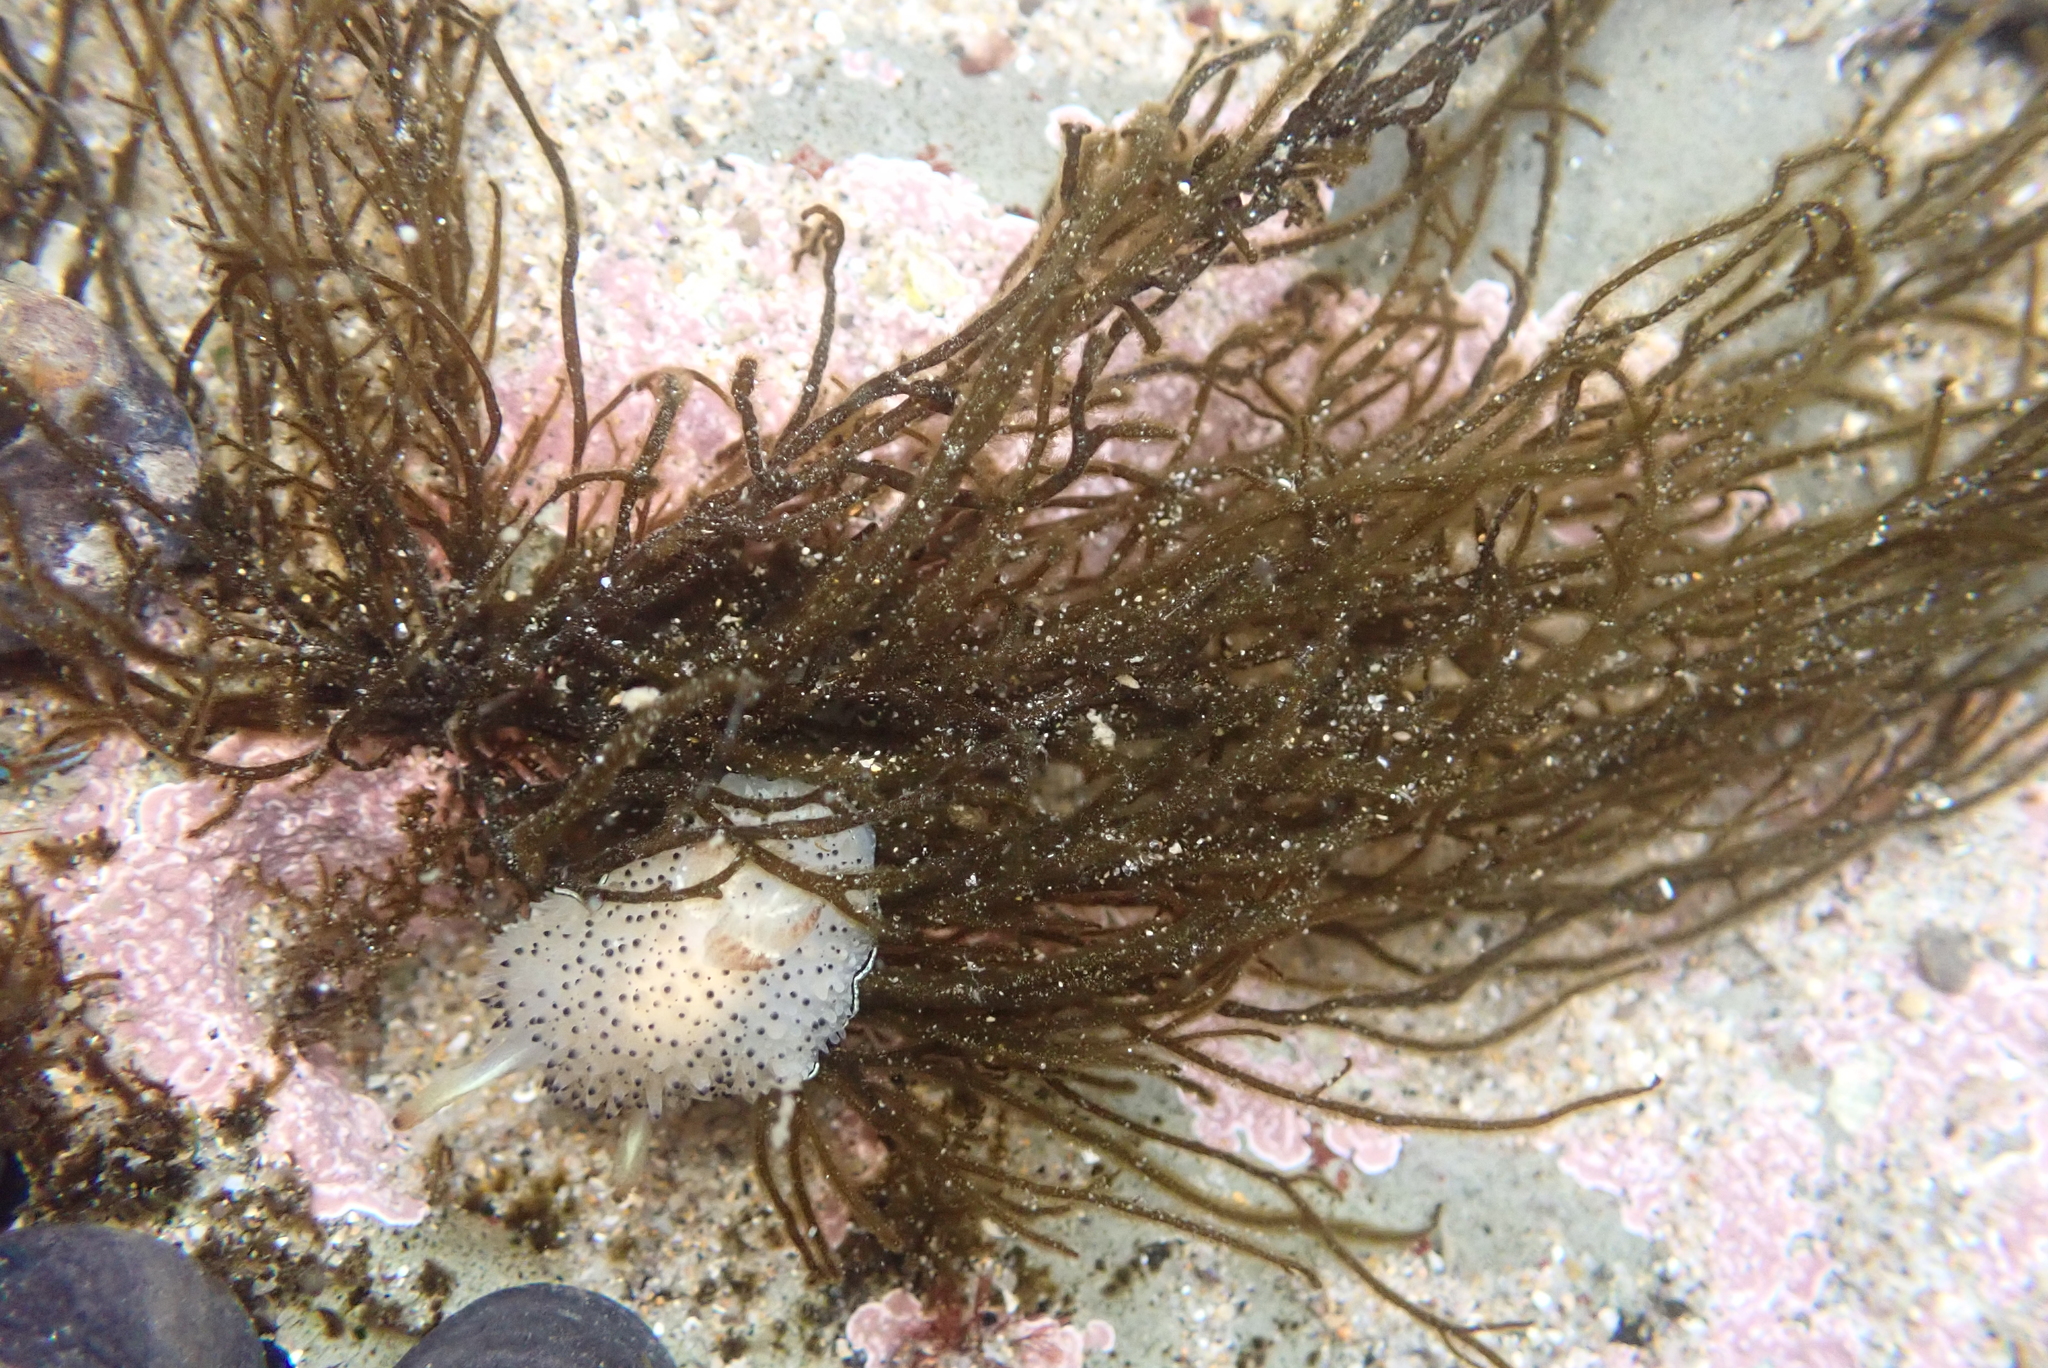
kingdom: Animalia
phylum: Mollusca
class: Gastropoda
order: Nudibranchia
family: Onchidorididae
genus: Acanthodoris
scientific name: Acanthodoris rhodoceras
